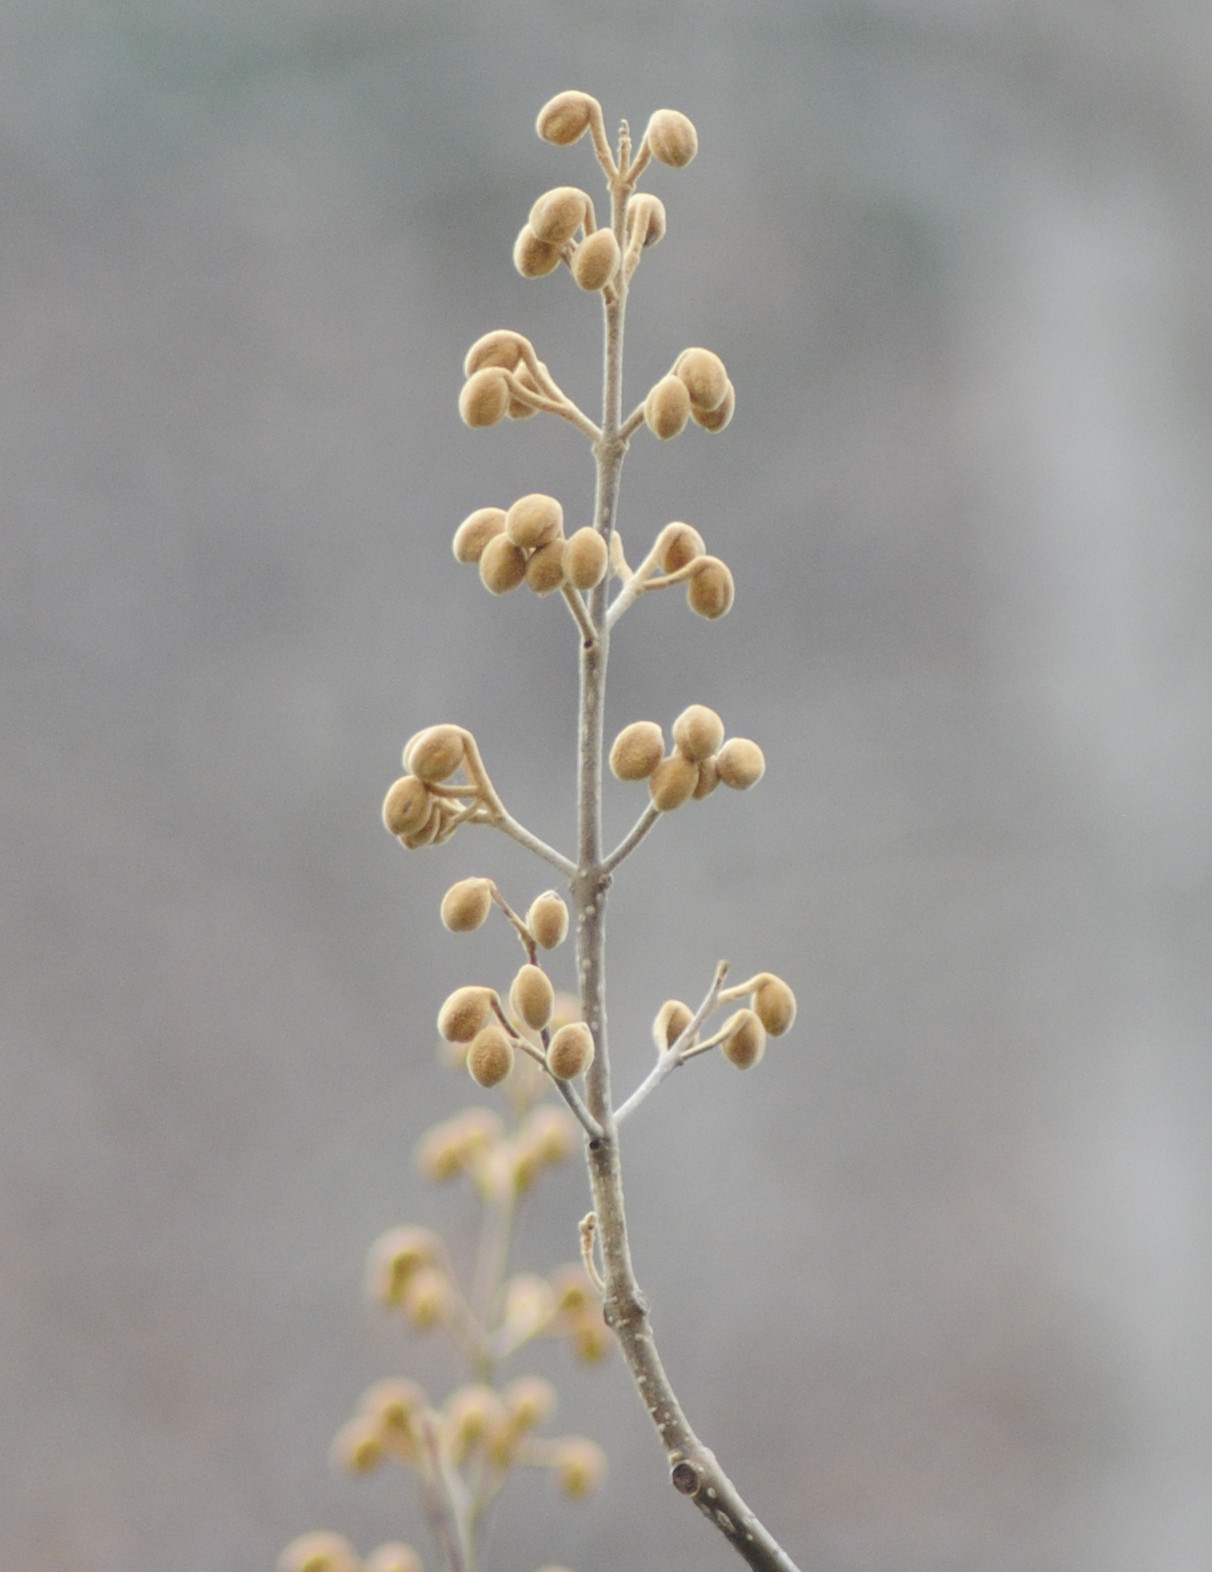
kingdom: Plantae
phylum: Tracheophyta
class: Magnoliopsida
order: Lamiales
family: Paulowniaceae
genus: Paulownia
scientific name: Paulownia tomentosa
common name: Foxglove-tree
